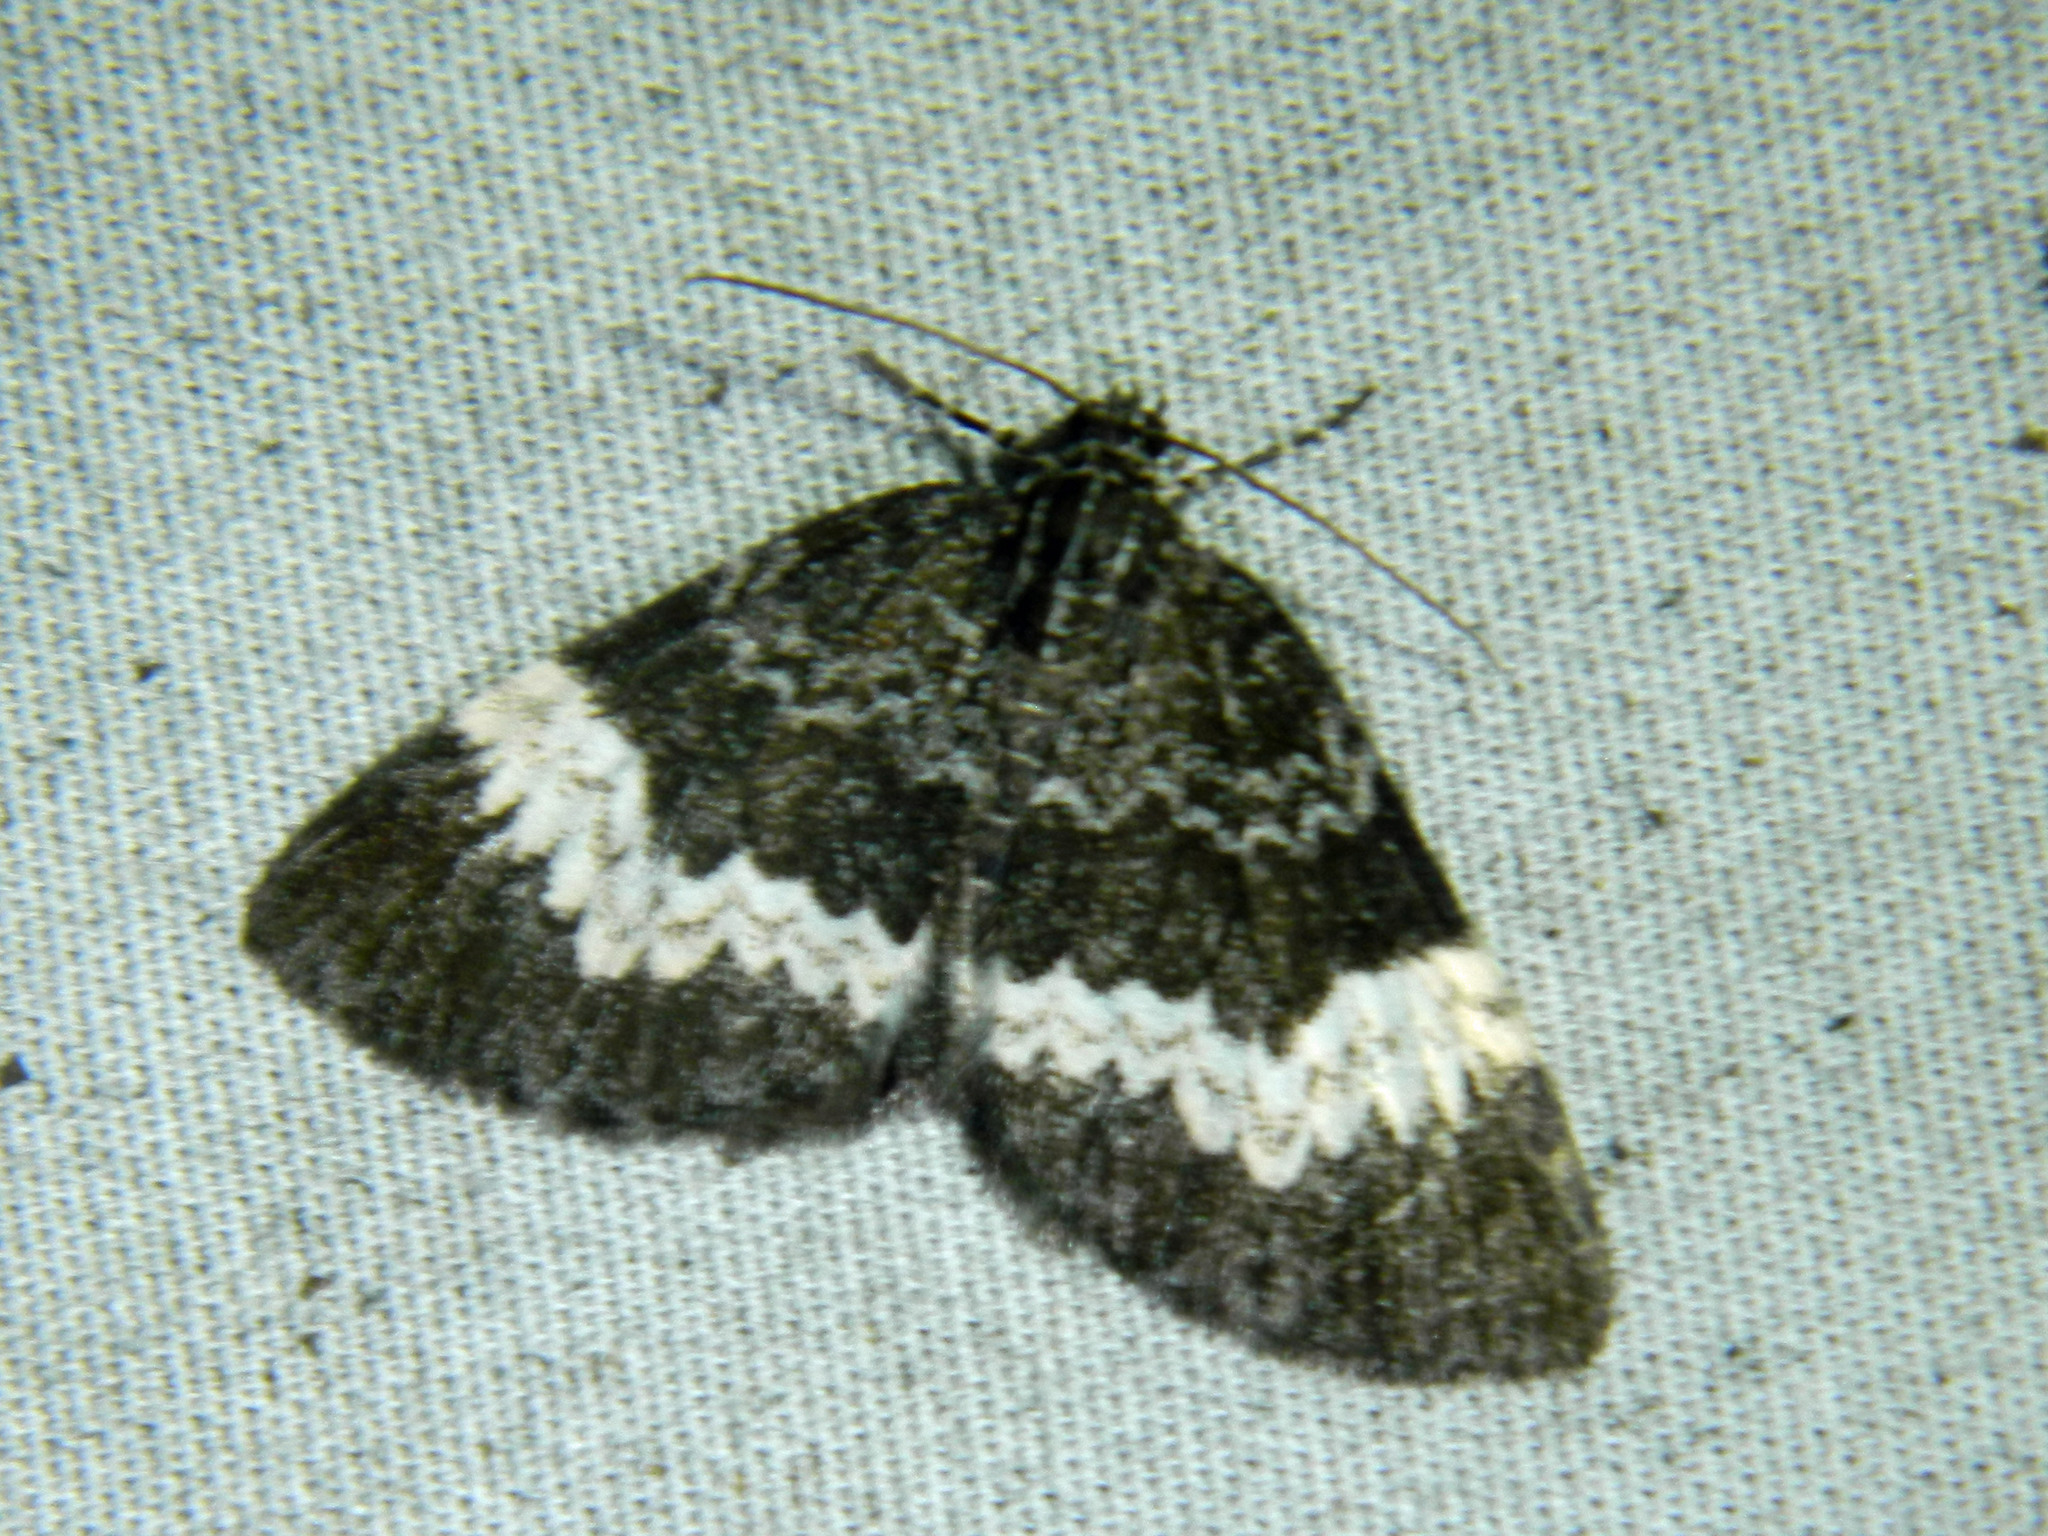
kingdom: Animalia
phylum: Arthropoda
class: Insecta
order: Lepidoptera
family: Geometridae
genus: Spargania
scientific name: Spargania luctuata
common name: White-banded carpet
